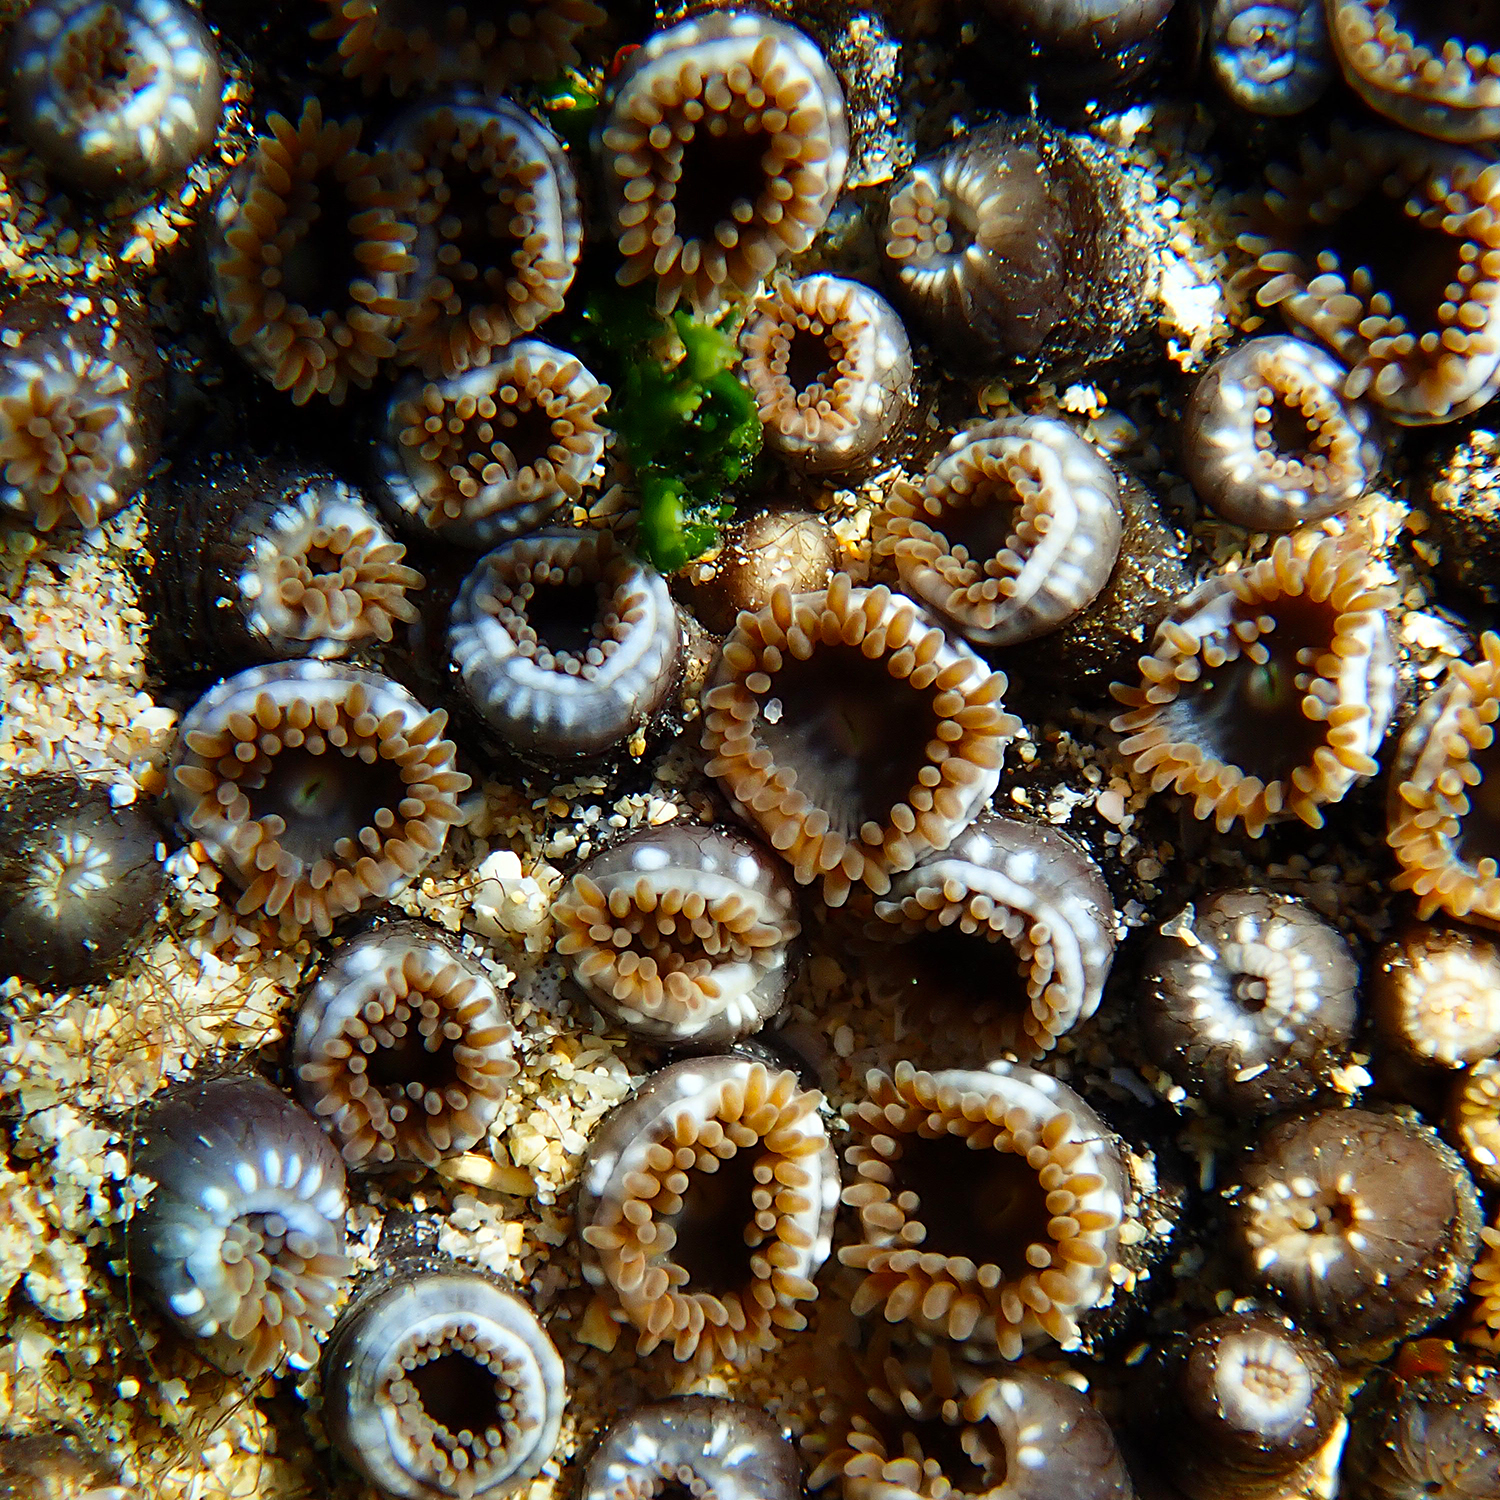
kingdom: Animalia
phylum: Cnidaria
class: Anthozoa
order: Zoantharia
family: Zoanthidae
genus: Zoanthus
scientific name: Zoanthus gigantus
